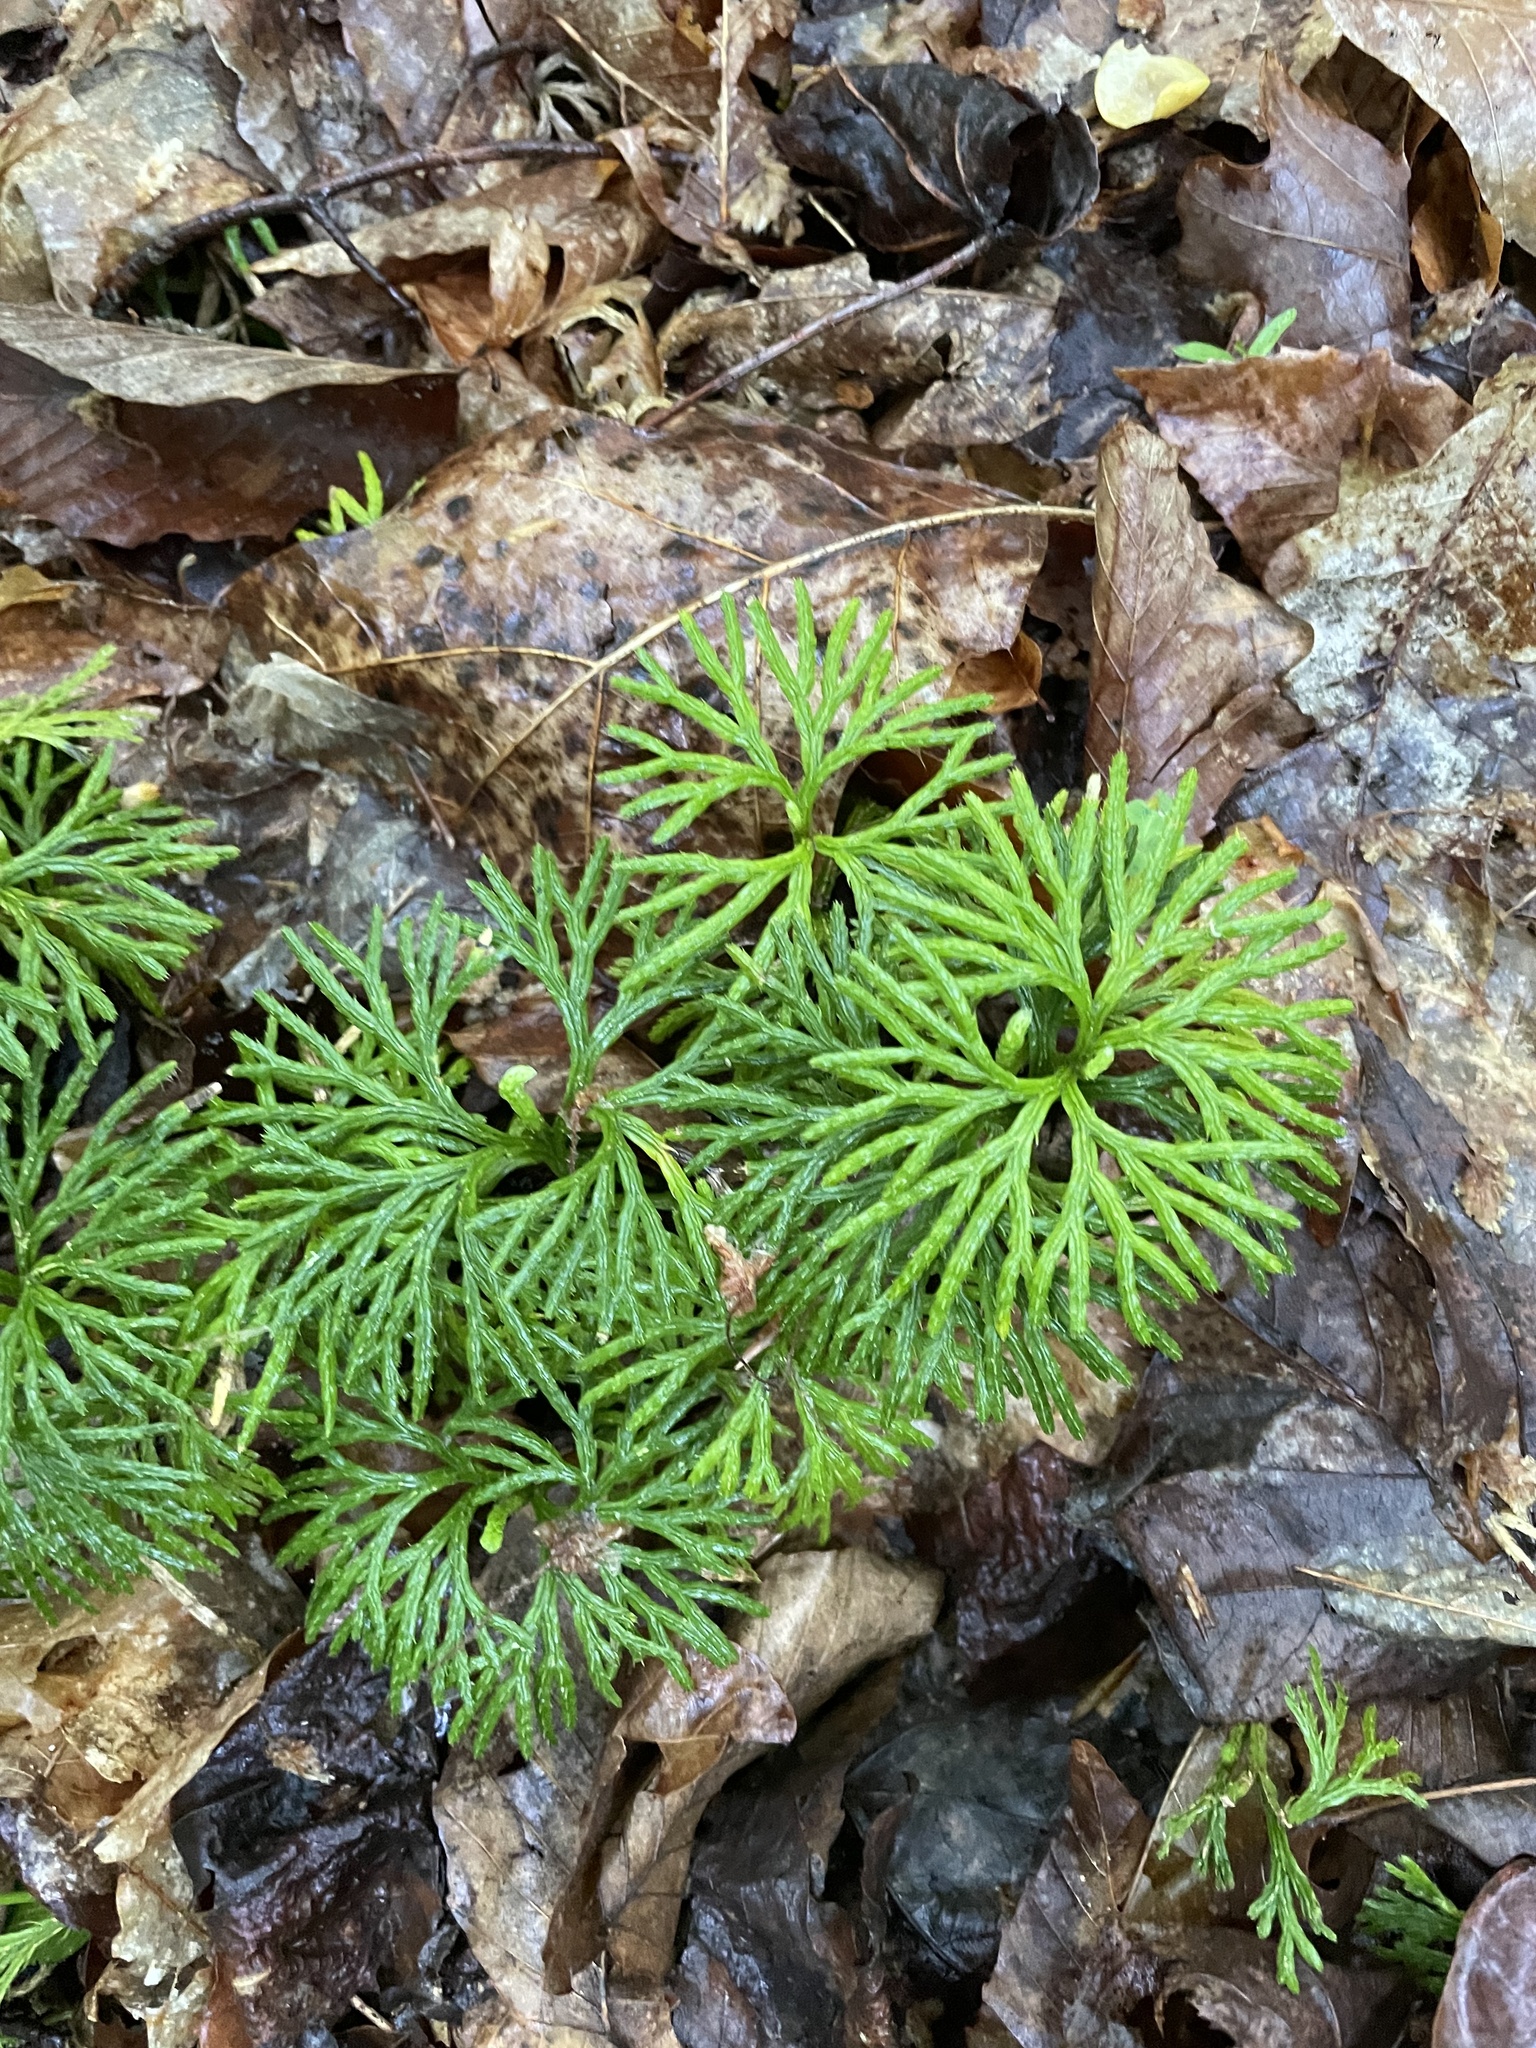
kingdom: Plantae
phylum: Tracheophyta
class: Lycopodiopsida
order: Lycopodiales
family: Lycopodiaceae
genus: Diphasiastrum
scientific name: Diphasiastrum digitatum
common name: Southern running-pine
